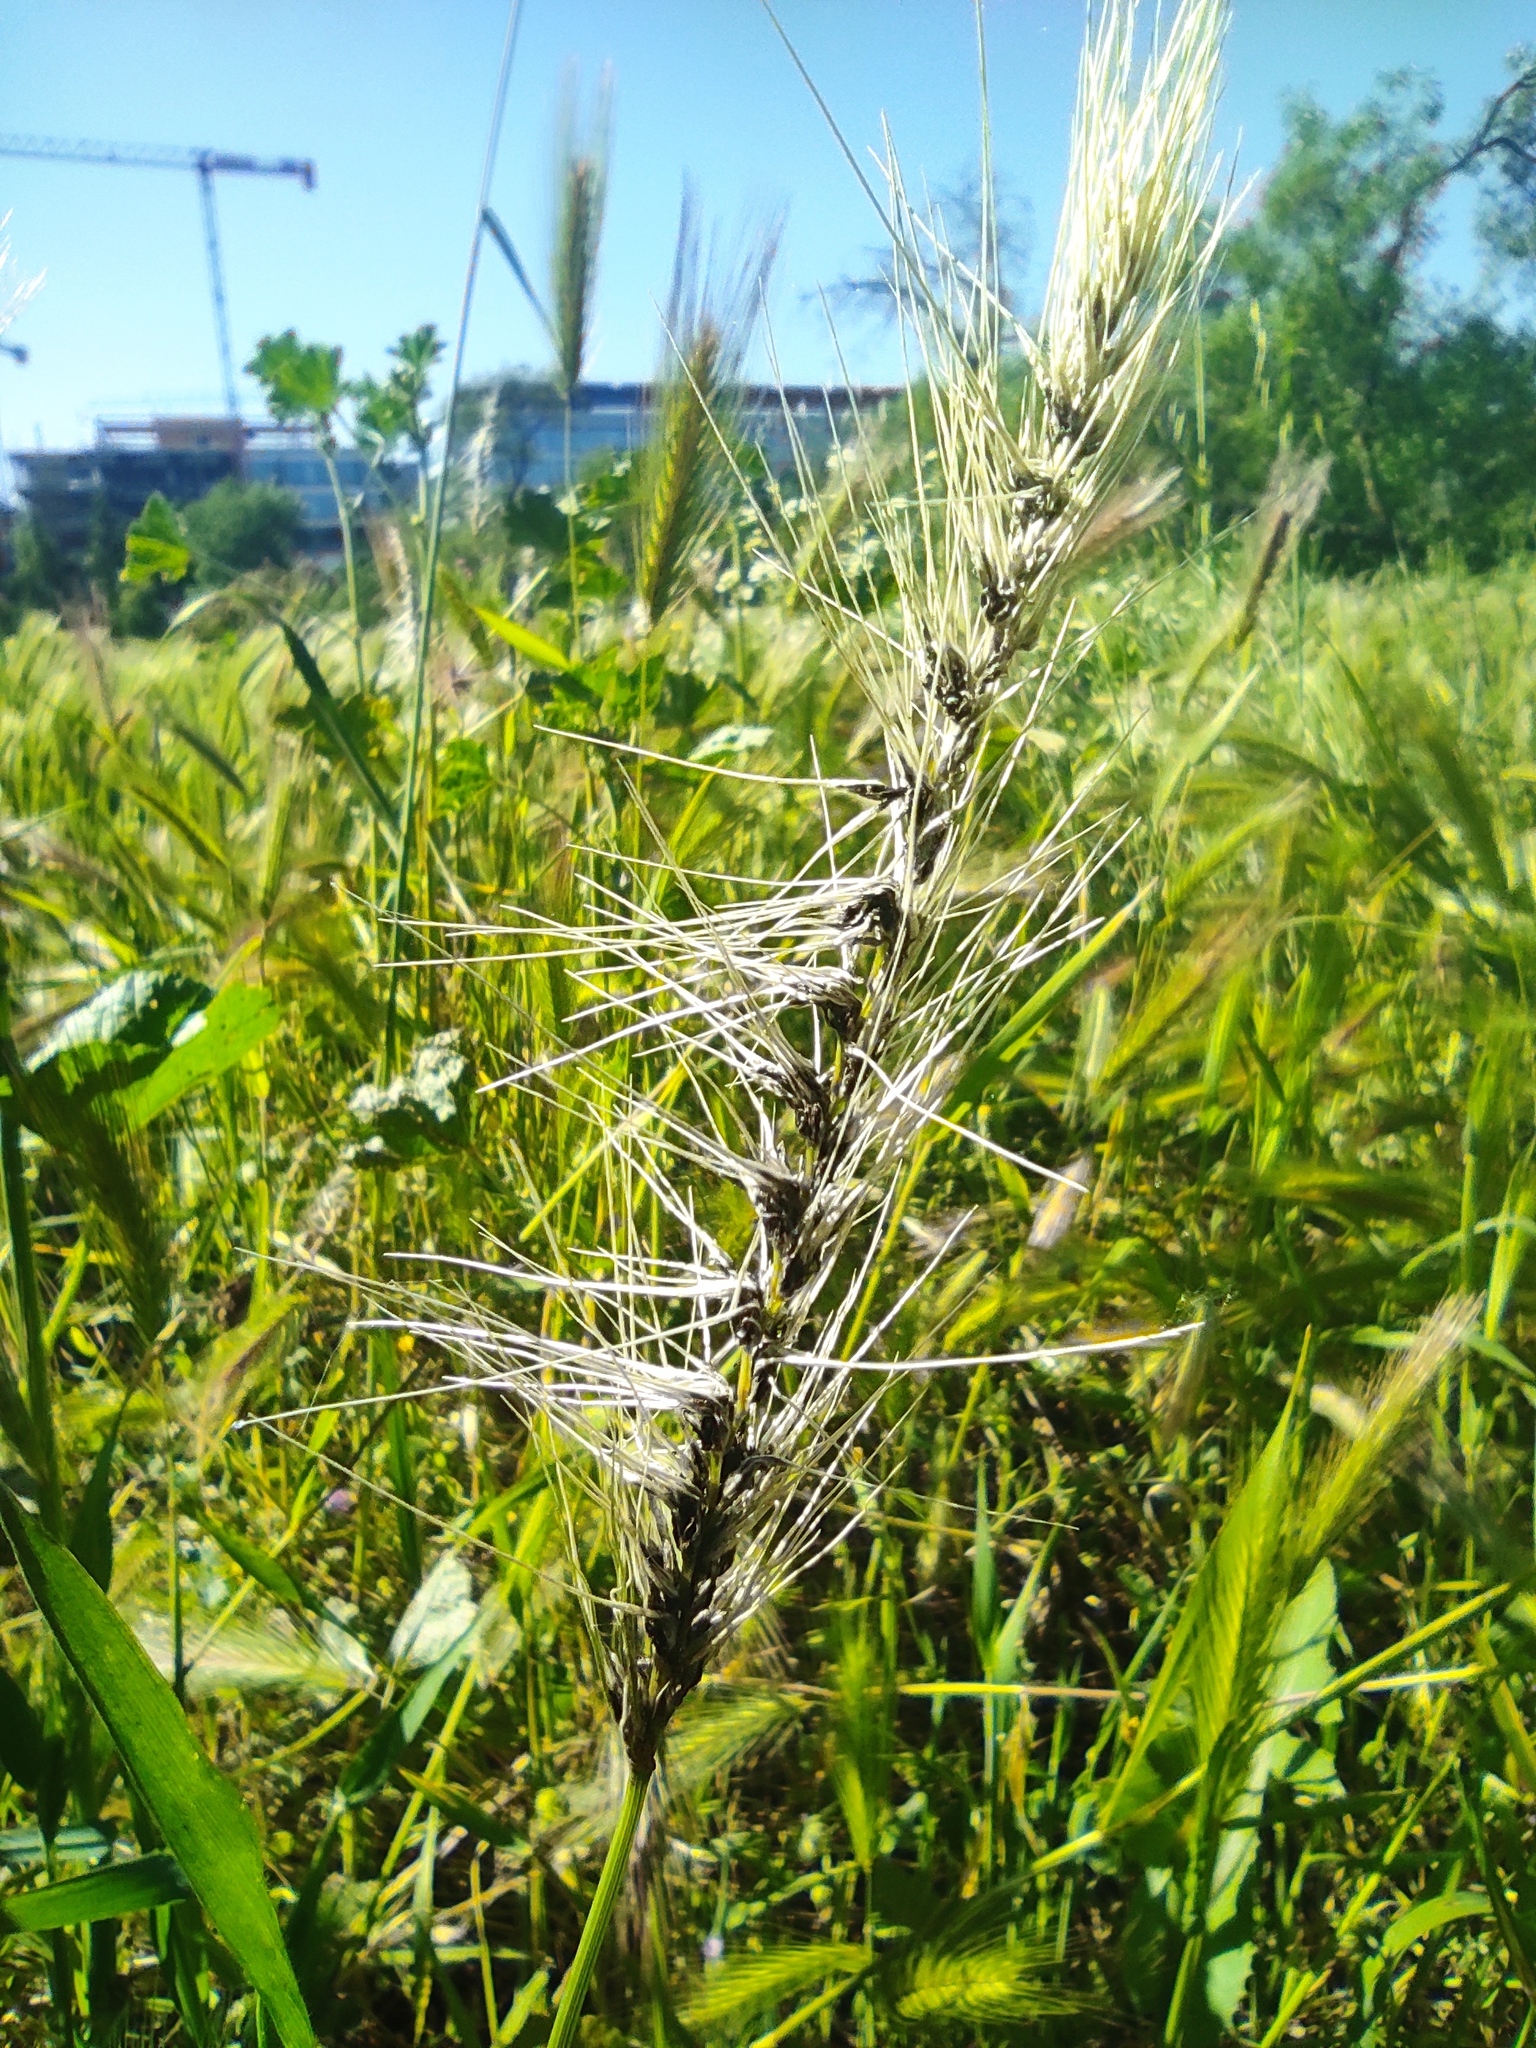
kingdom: Fungi
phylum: Basidiomycota
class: Ustilaginomycetes
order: Ustilaginales
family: Ustilaginaceae
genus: Ustilago
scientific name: Ustilago nuda
